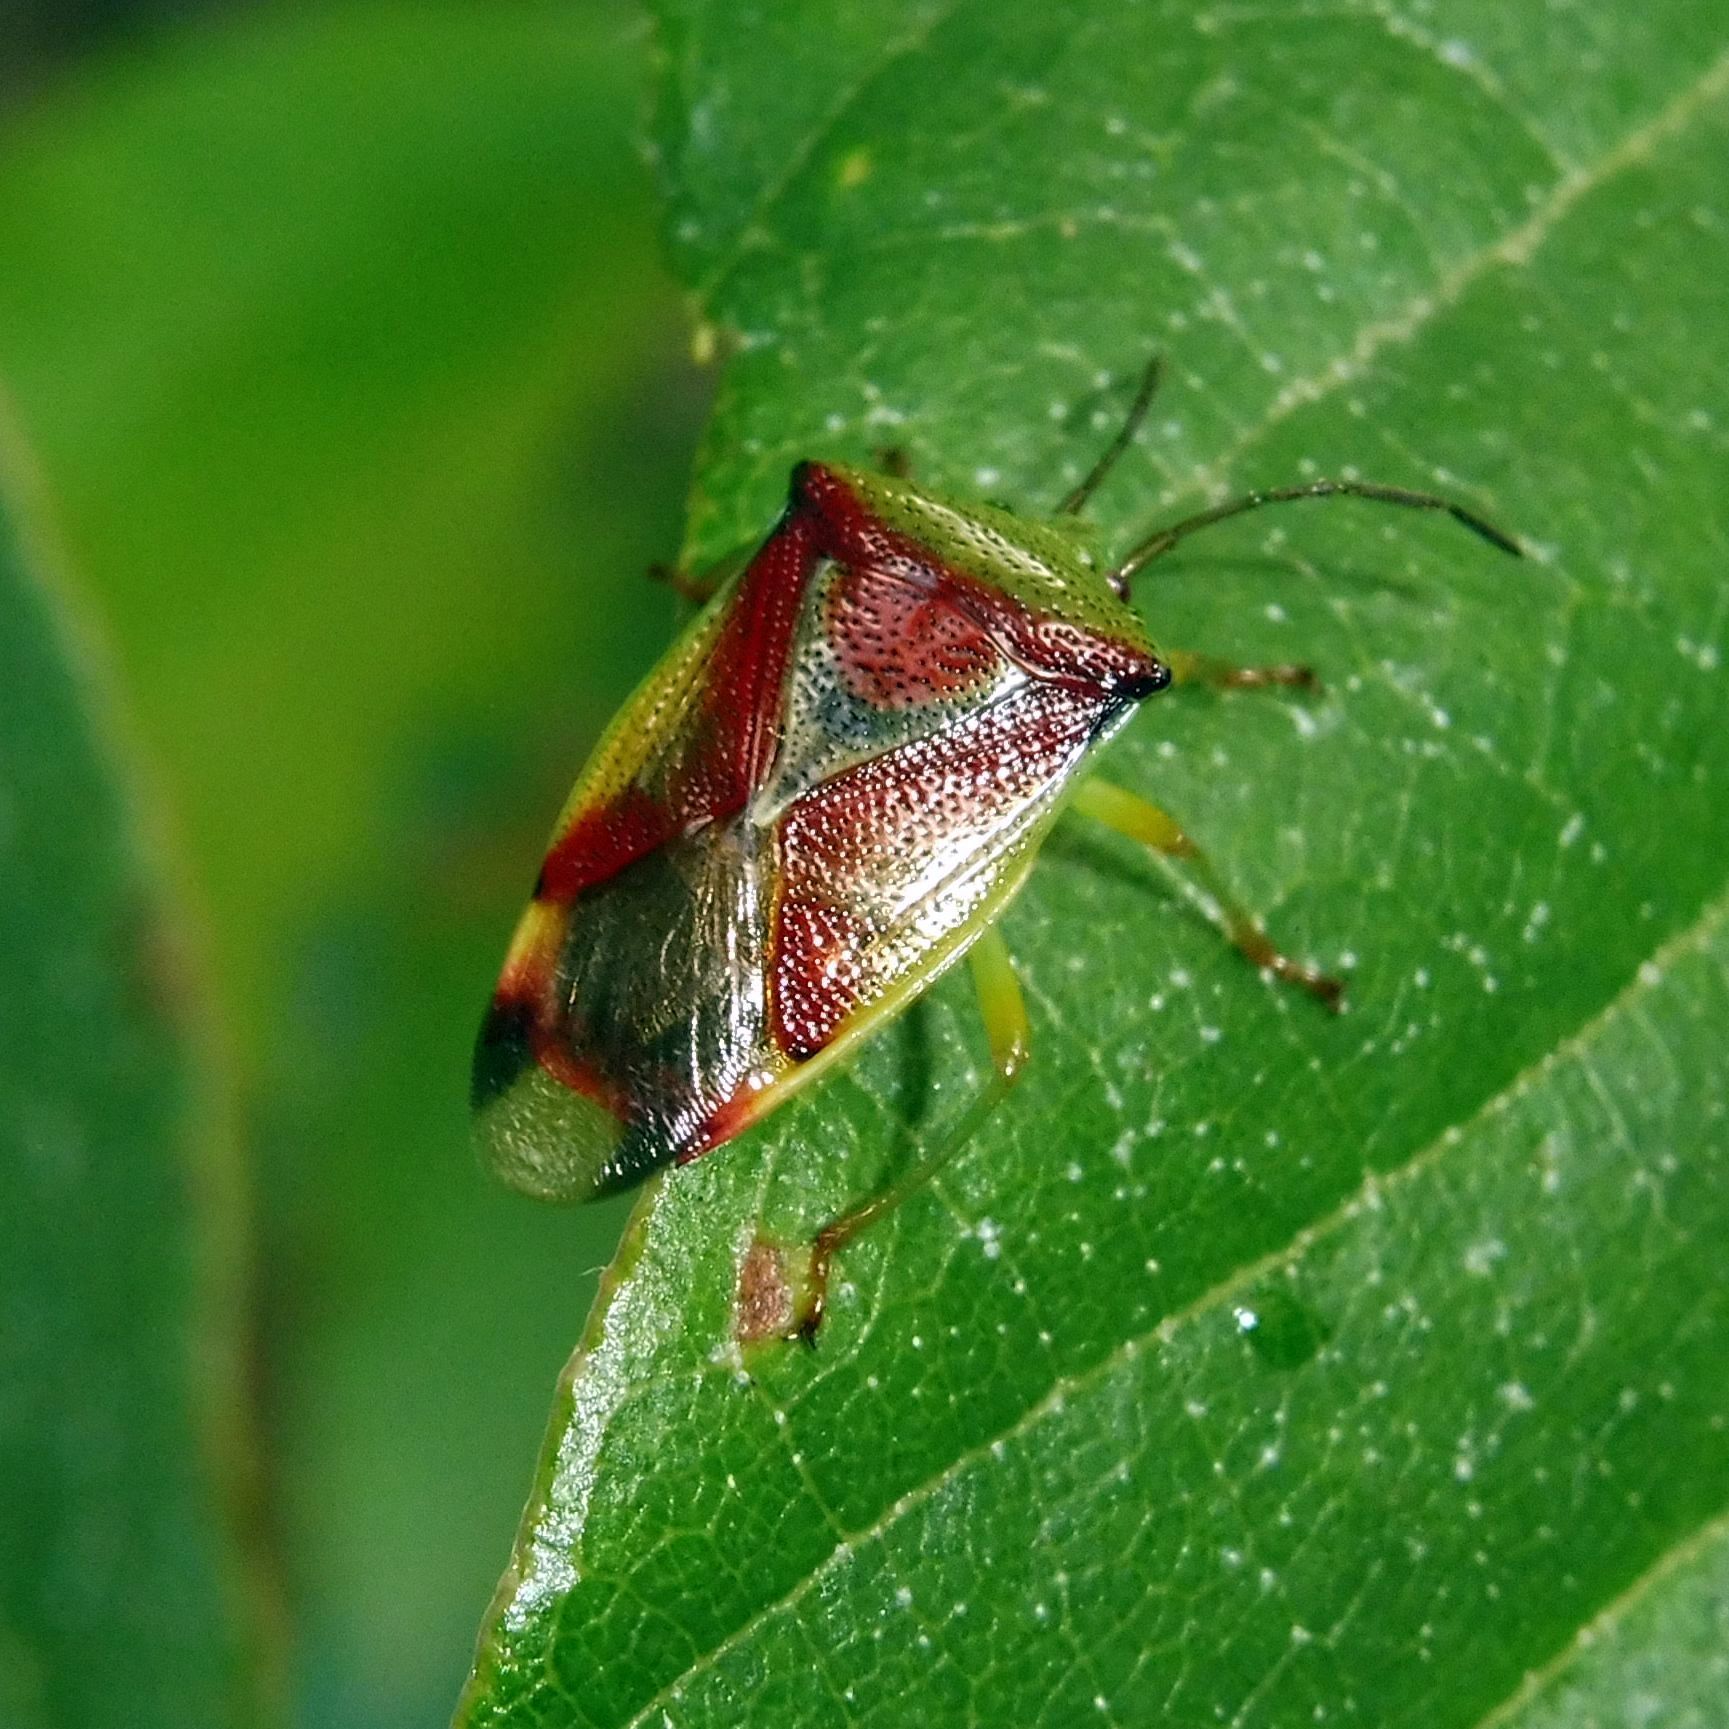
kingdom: Animalia
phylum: Arthropoda
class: Insecta
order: Hemiptera
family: Acanthosomatidae
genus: Elasmostethus
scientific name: Elasmostethus interstinctus
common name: Birch shieldbug
